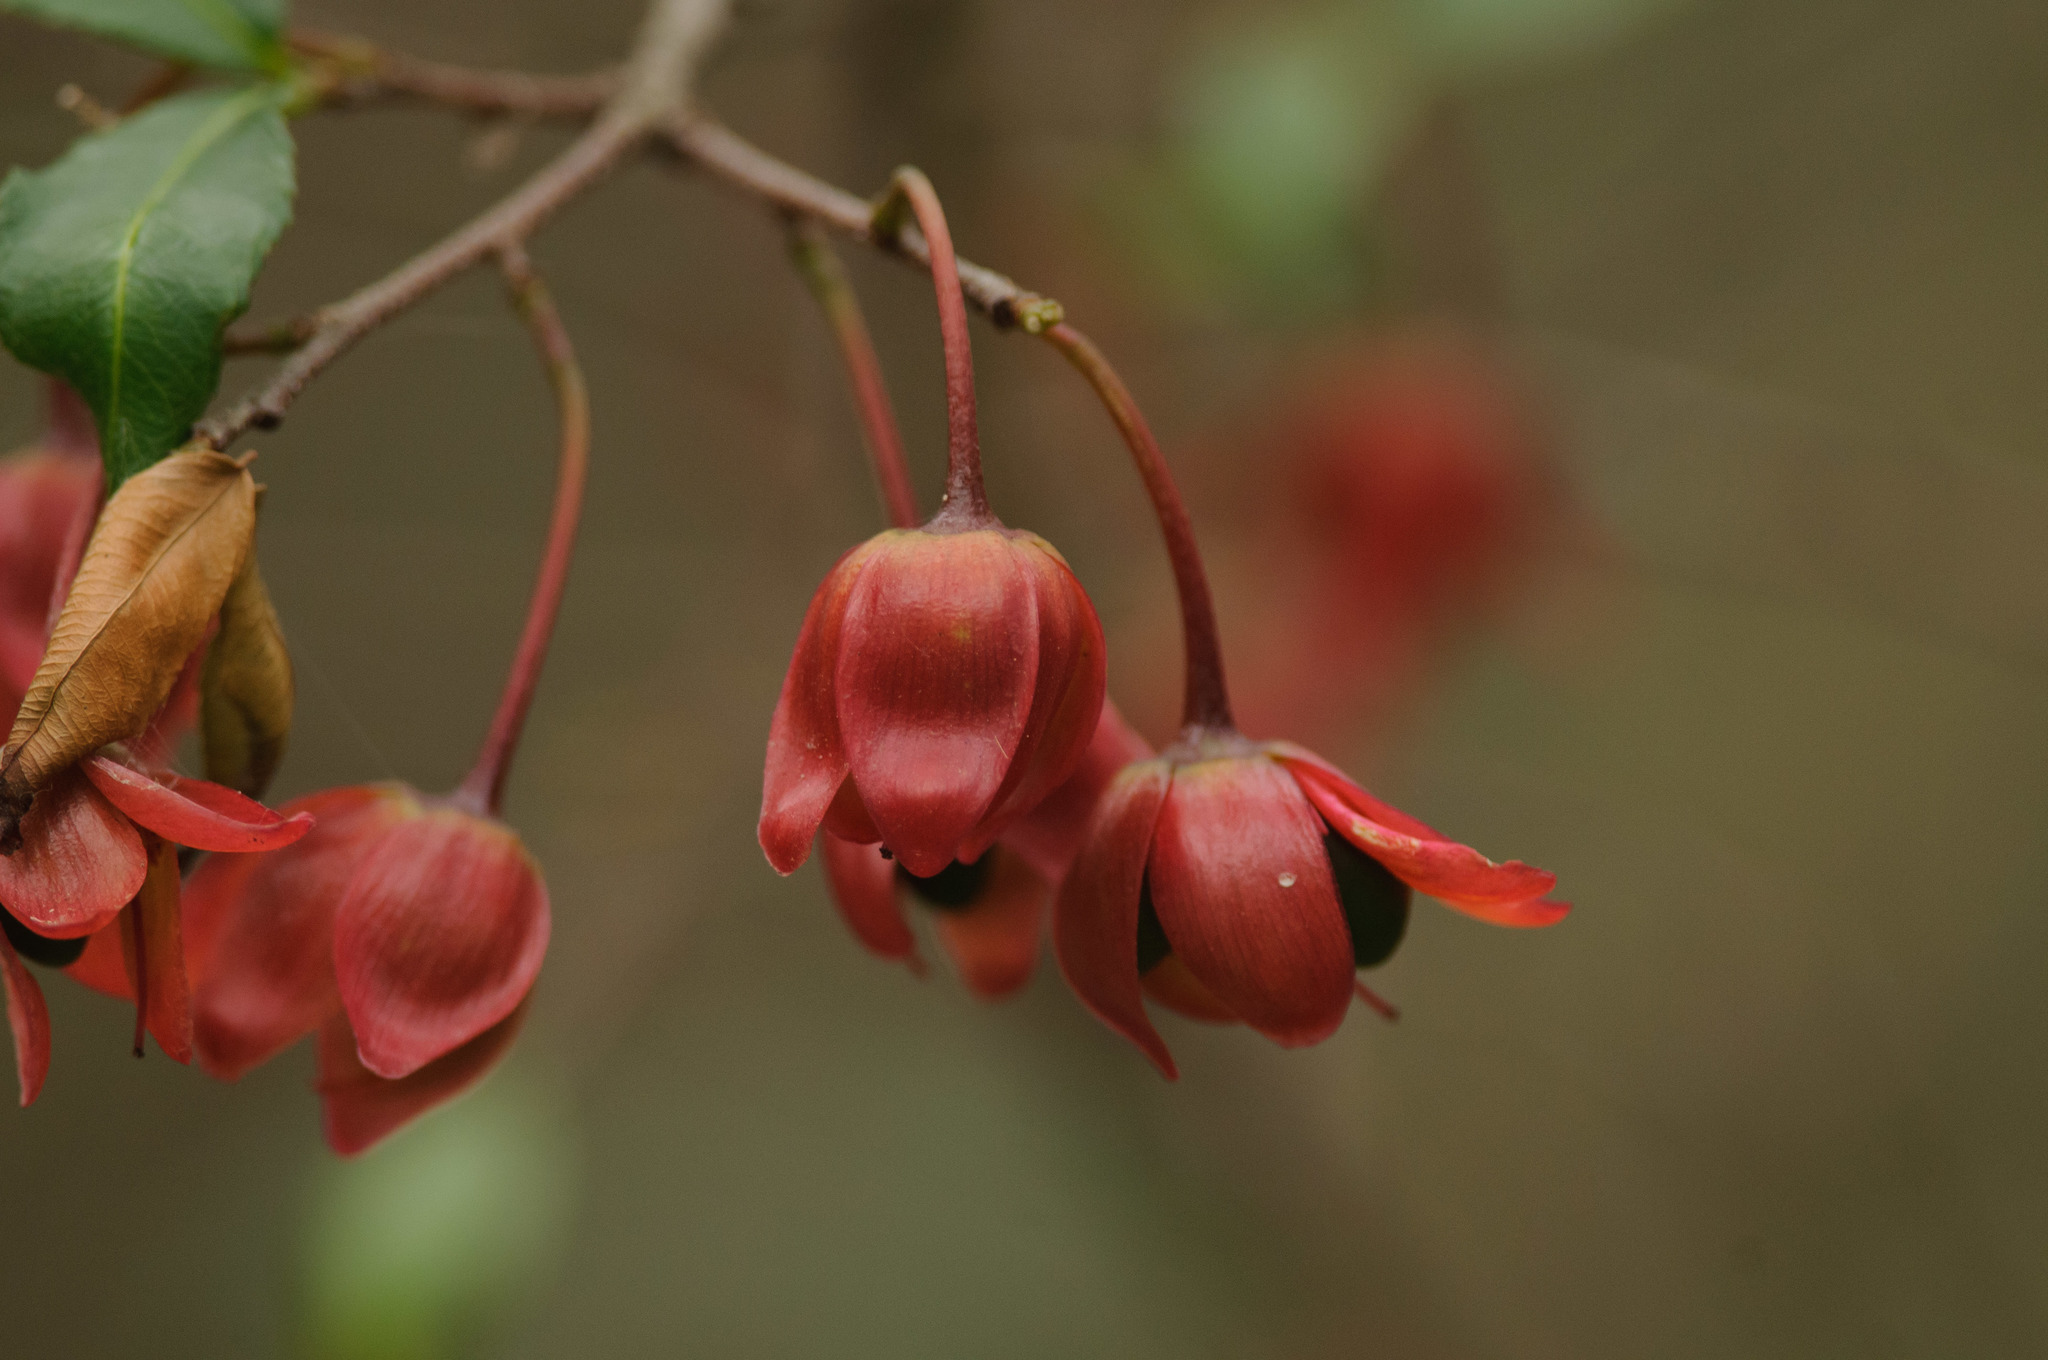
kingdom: Plantae
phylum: Tracheophyta
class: Magnoliopsida
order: Malpighiales
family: Ochnaceae
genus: Ochna
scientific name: Ochna serrulata
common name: Mickey mouse plant
